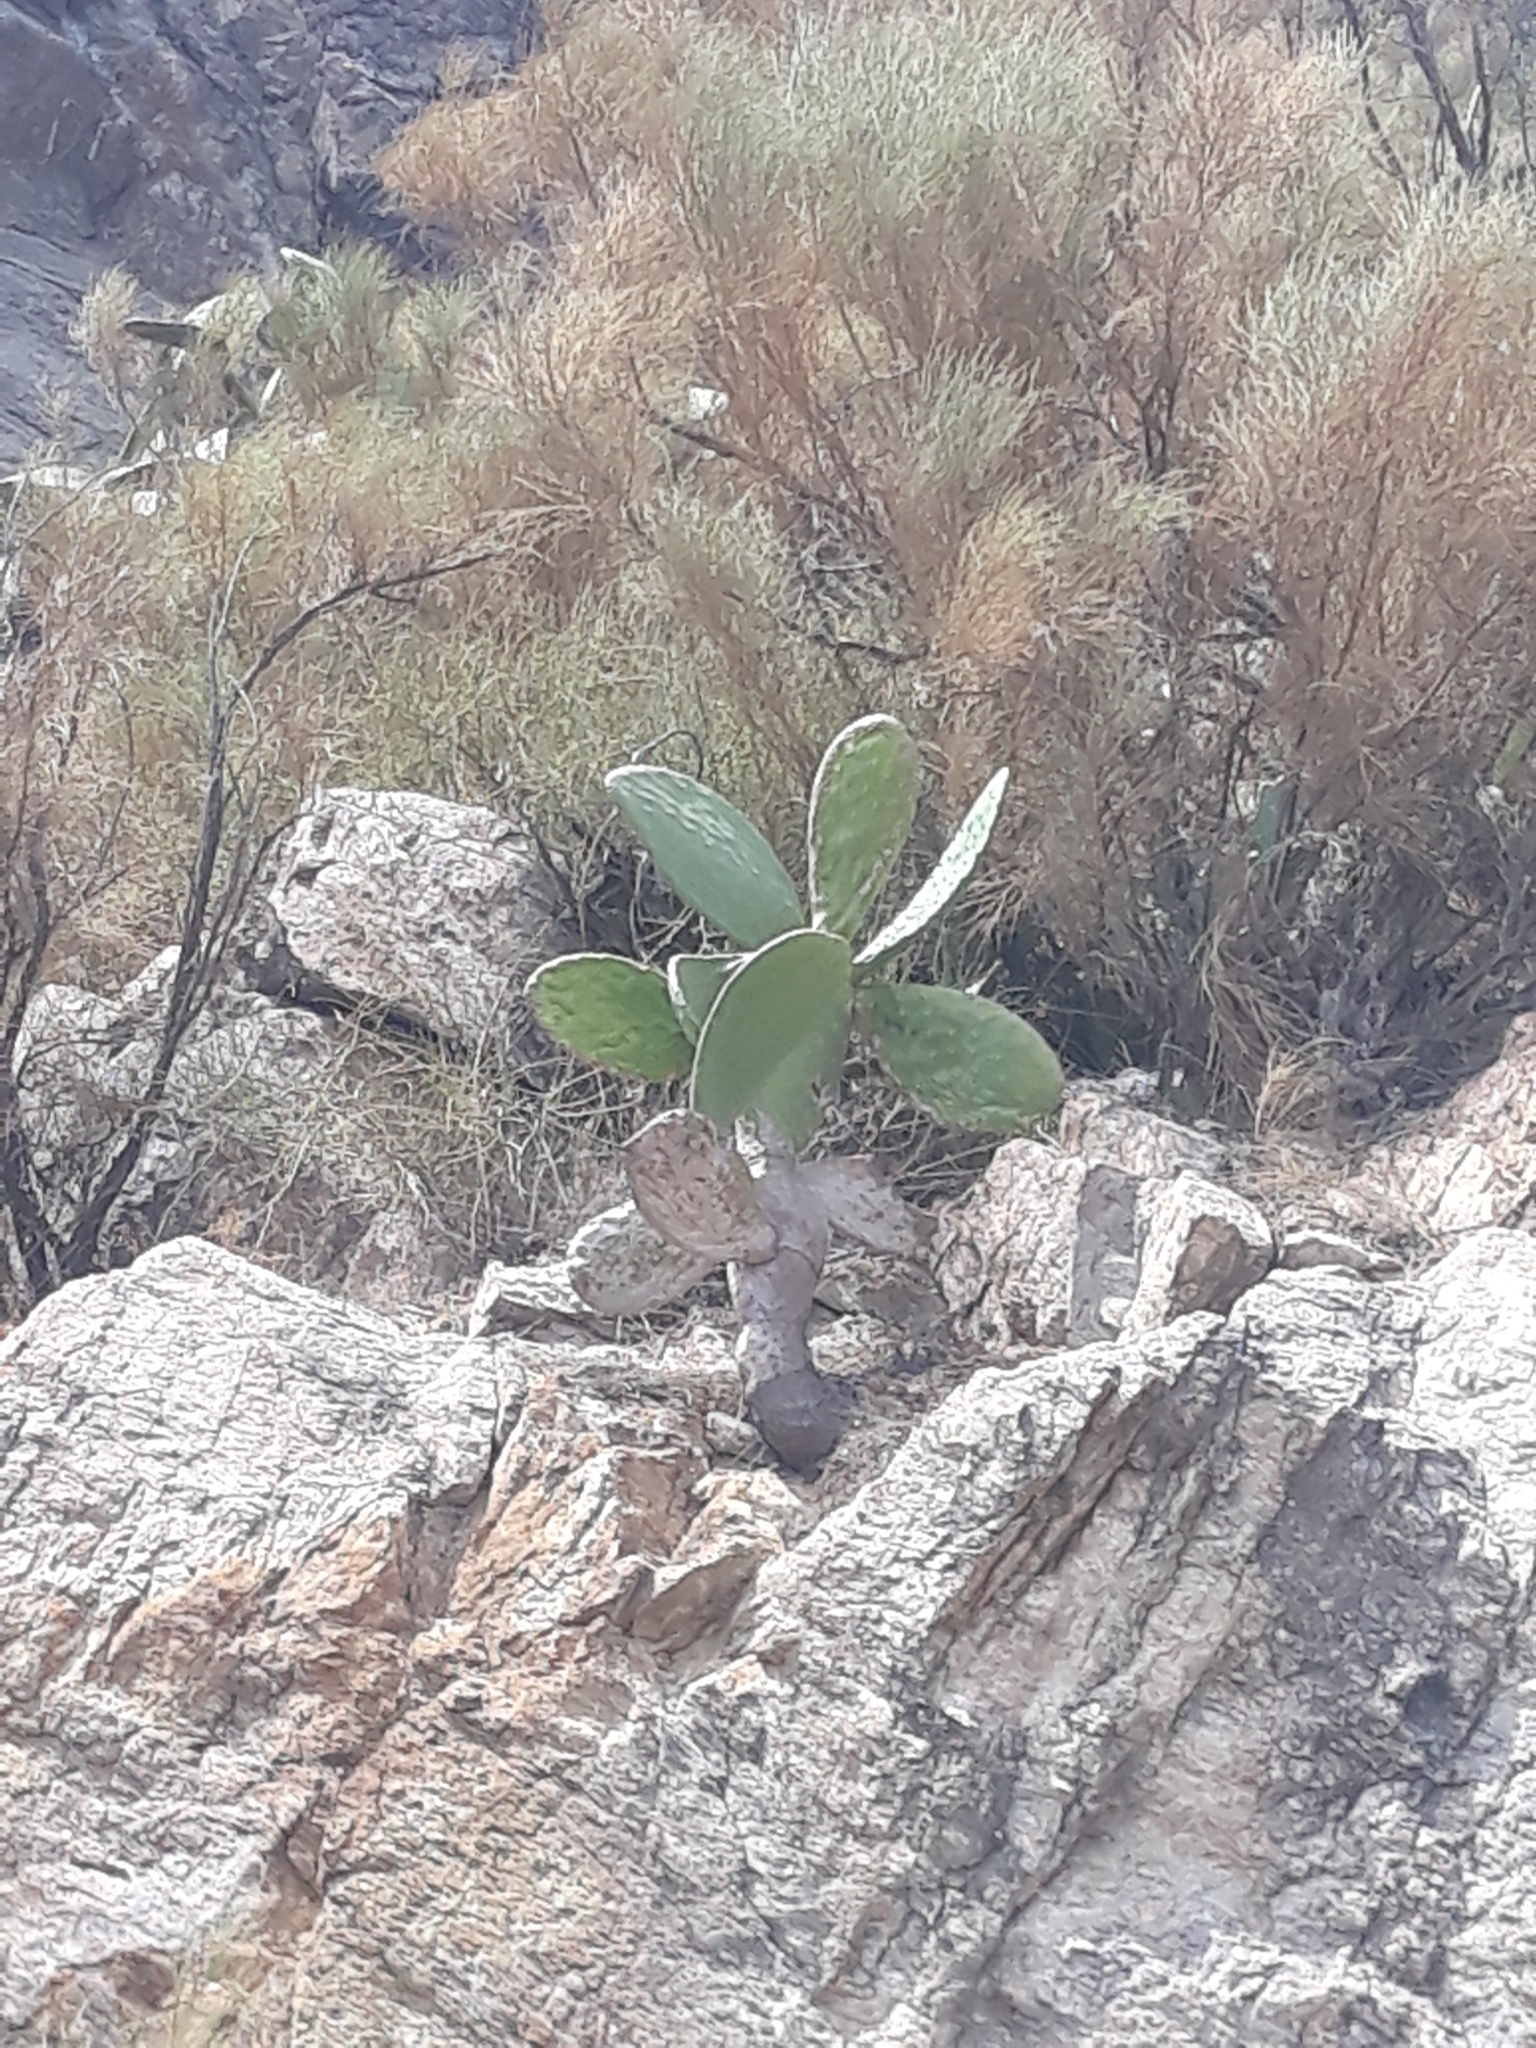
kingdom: Plantae
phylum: Tracheophyta
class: Magnoliopsida
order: Caryophyllales
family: Cactaceae
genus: Opuntia
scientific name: Opuntia ficus-indica
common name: Barbary fig
